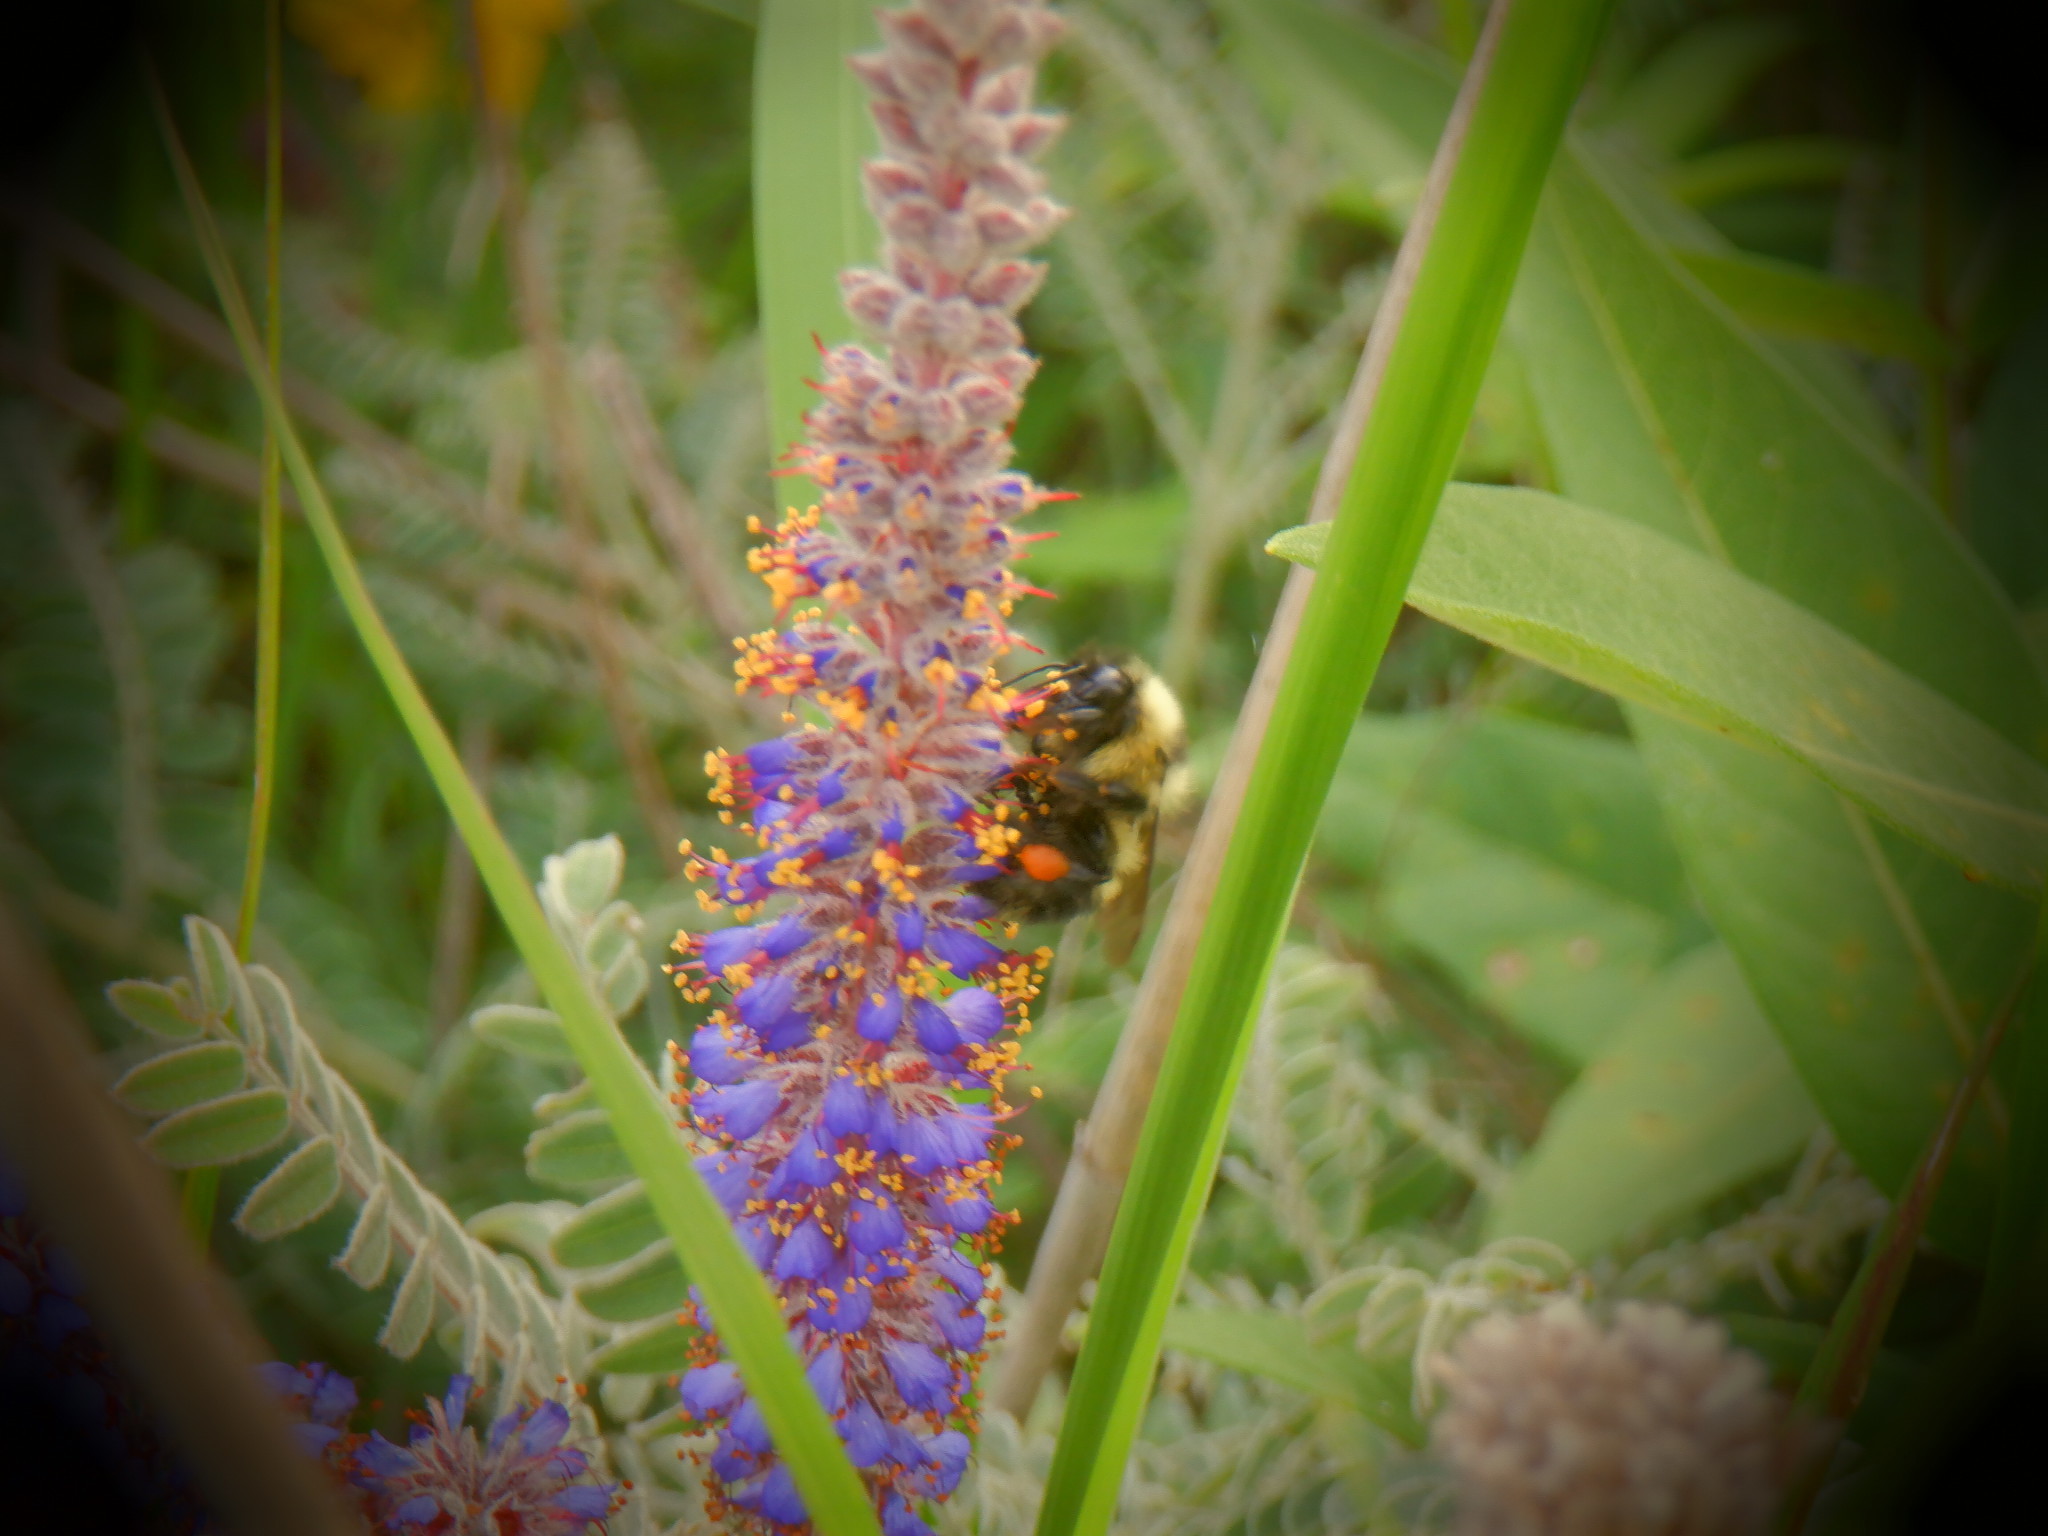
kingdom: Animalia
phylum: Arthropoda
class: Insecta
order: Hymenoptera
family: Apidae
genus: Bombus
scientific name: Bombus rufocinctus
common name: Red-belted bumble bee
